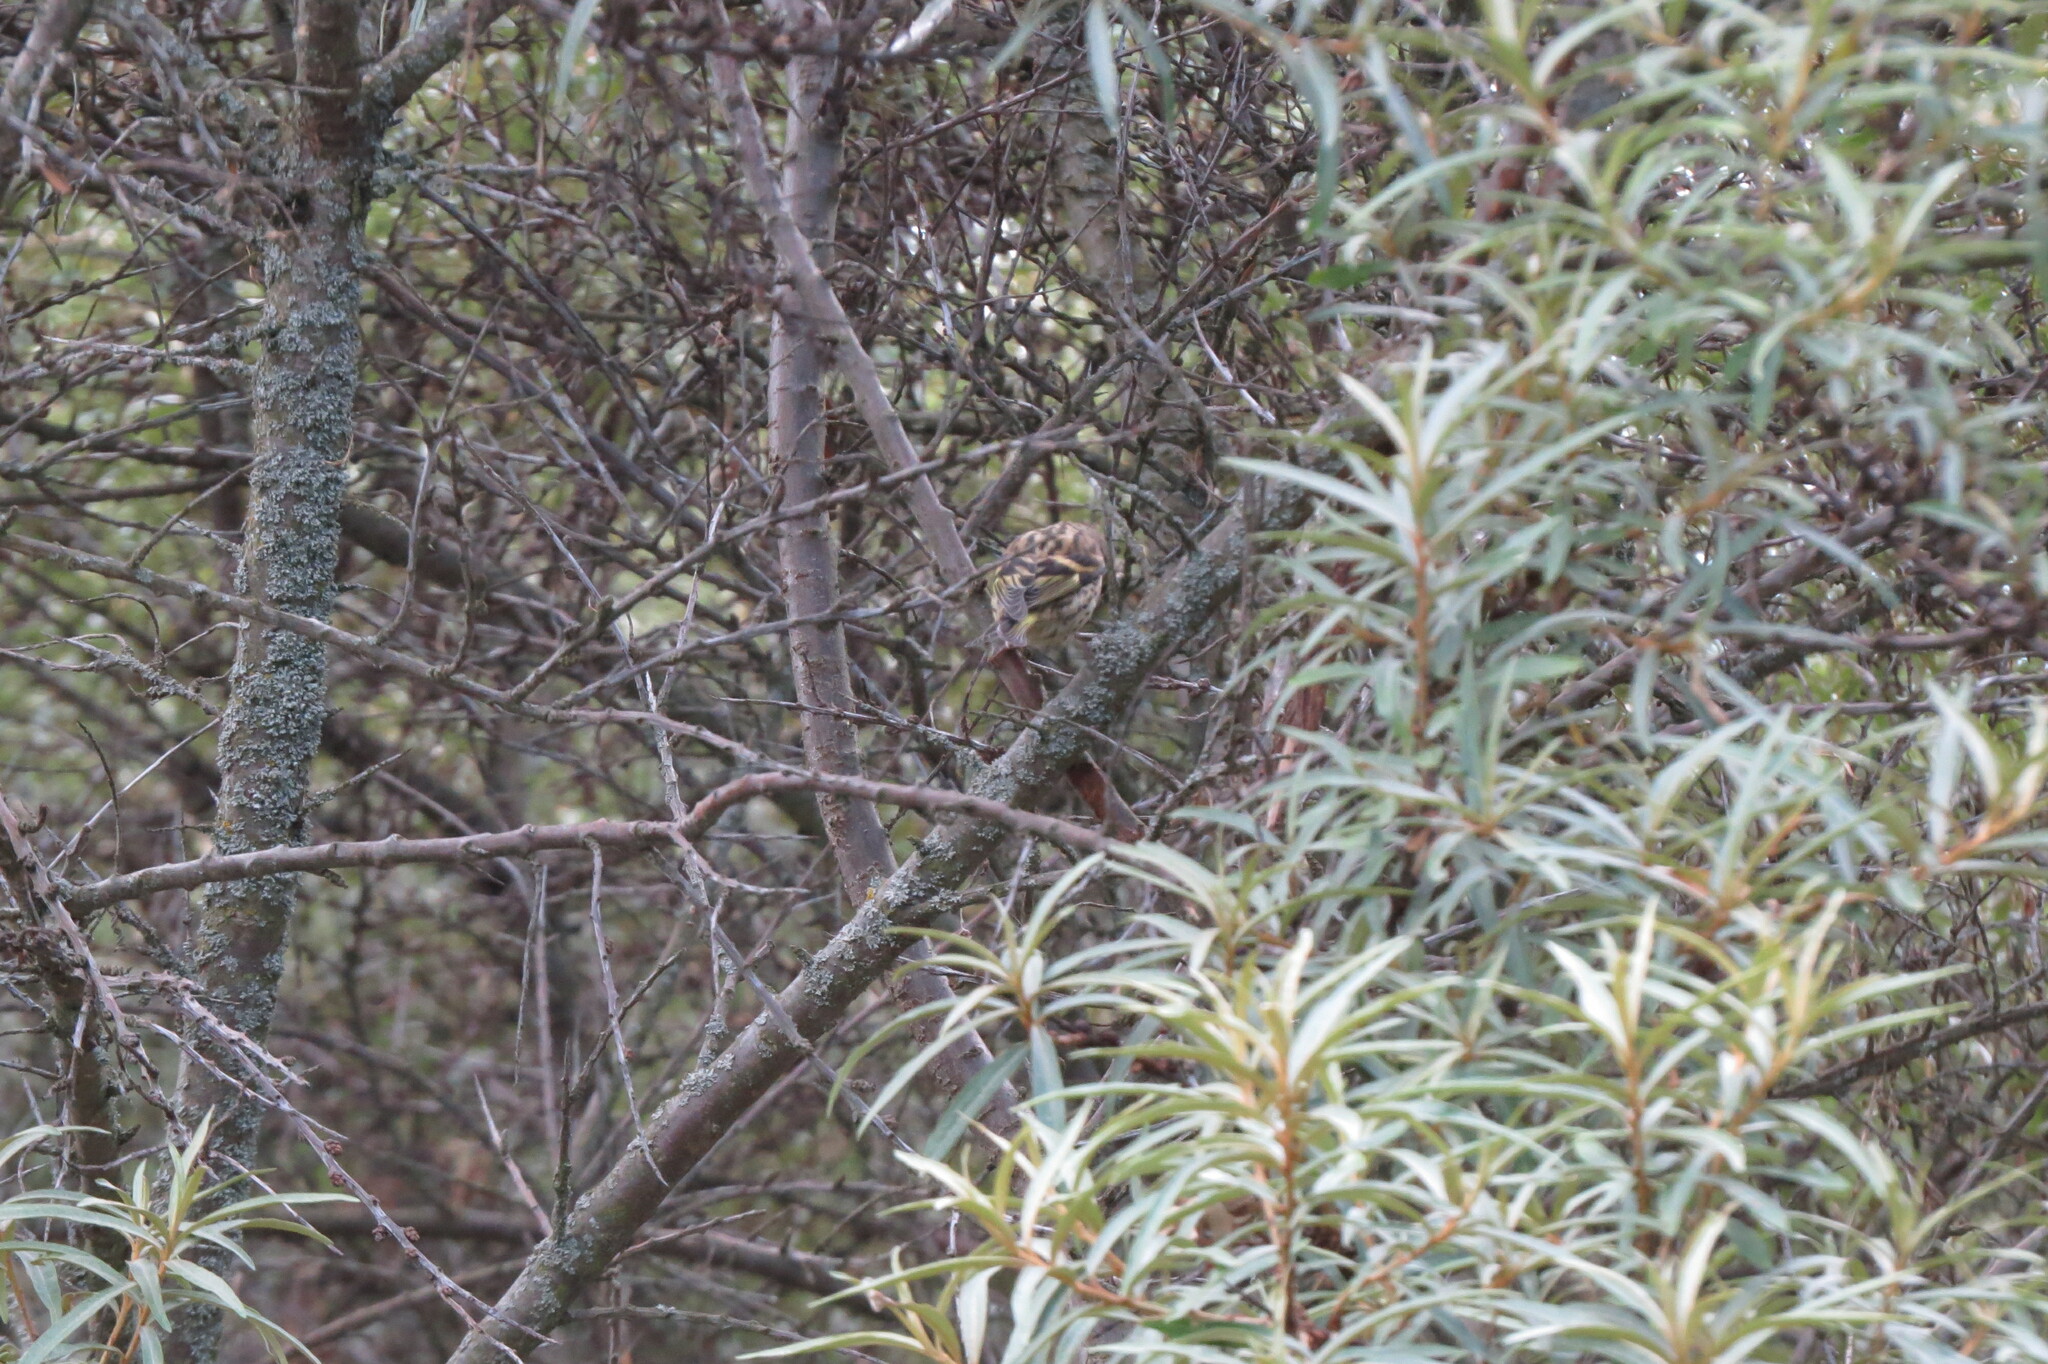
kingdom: Animalia
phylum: Chordata
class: Aves
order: Passeriformes
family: Fringillidae
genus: Spinus
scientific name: Spinus spinus
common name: Eurasian siskin
